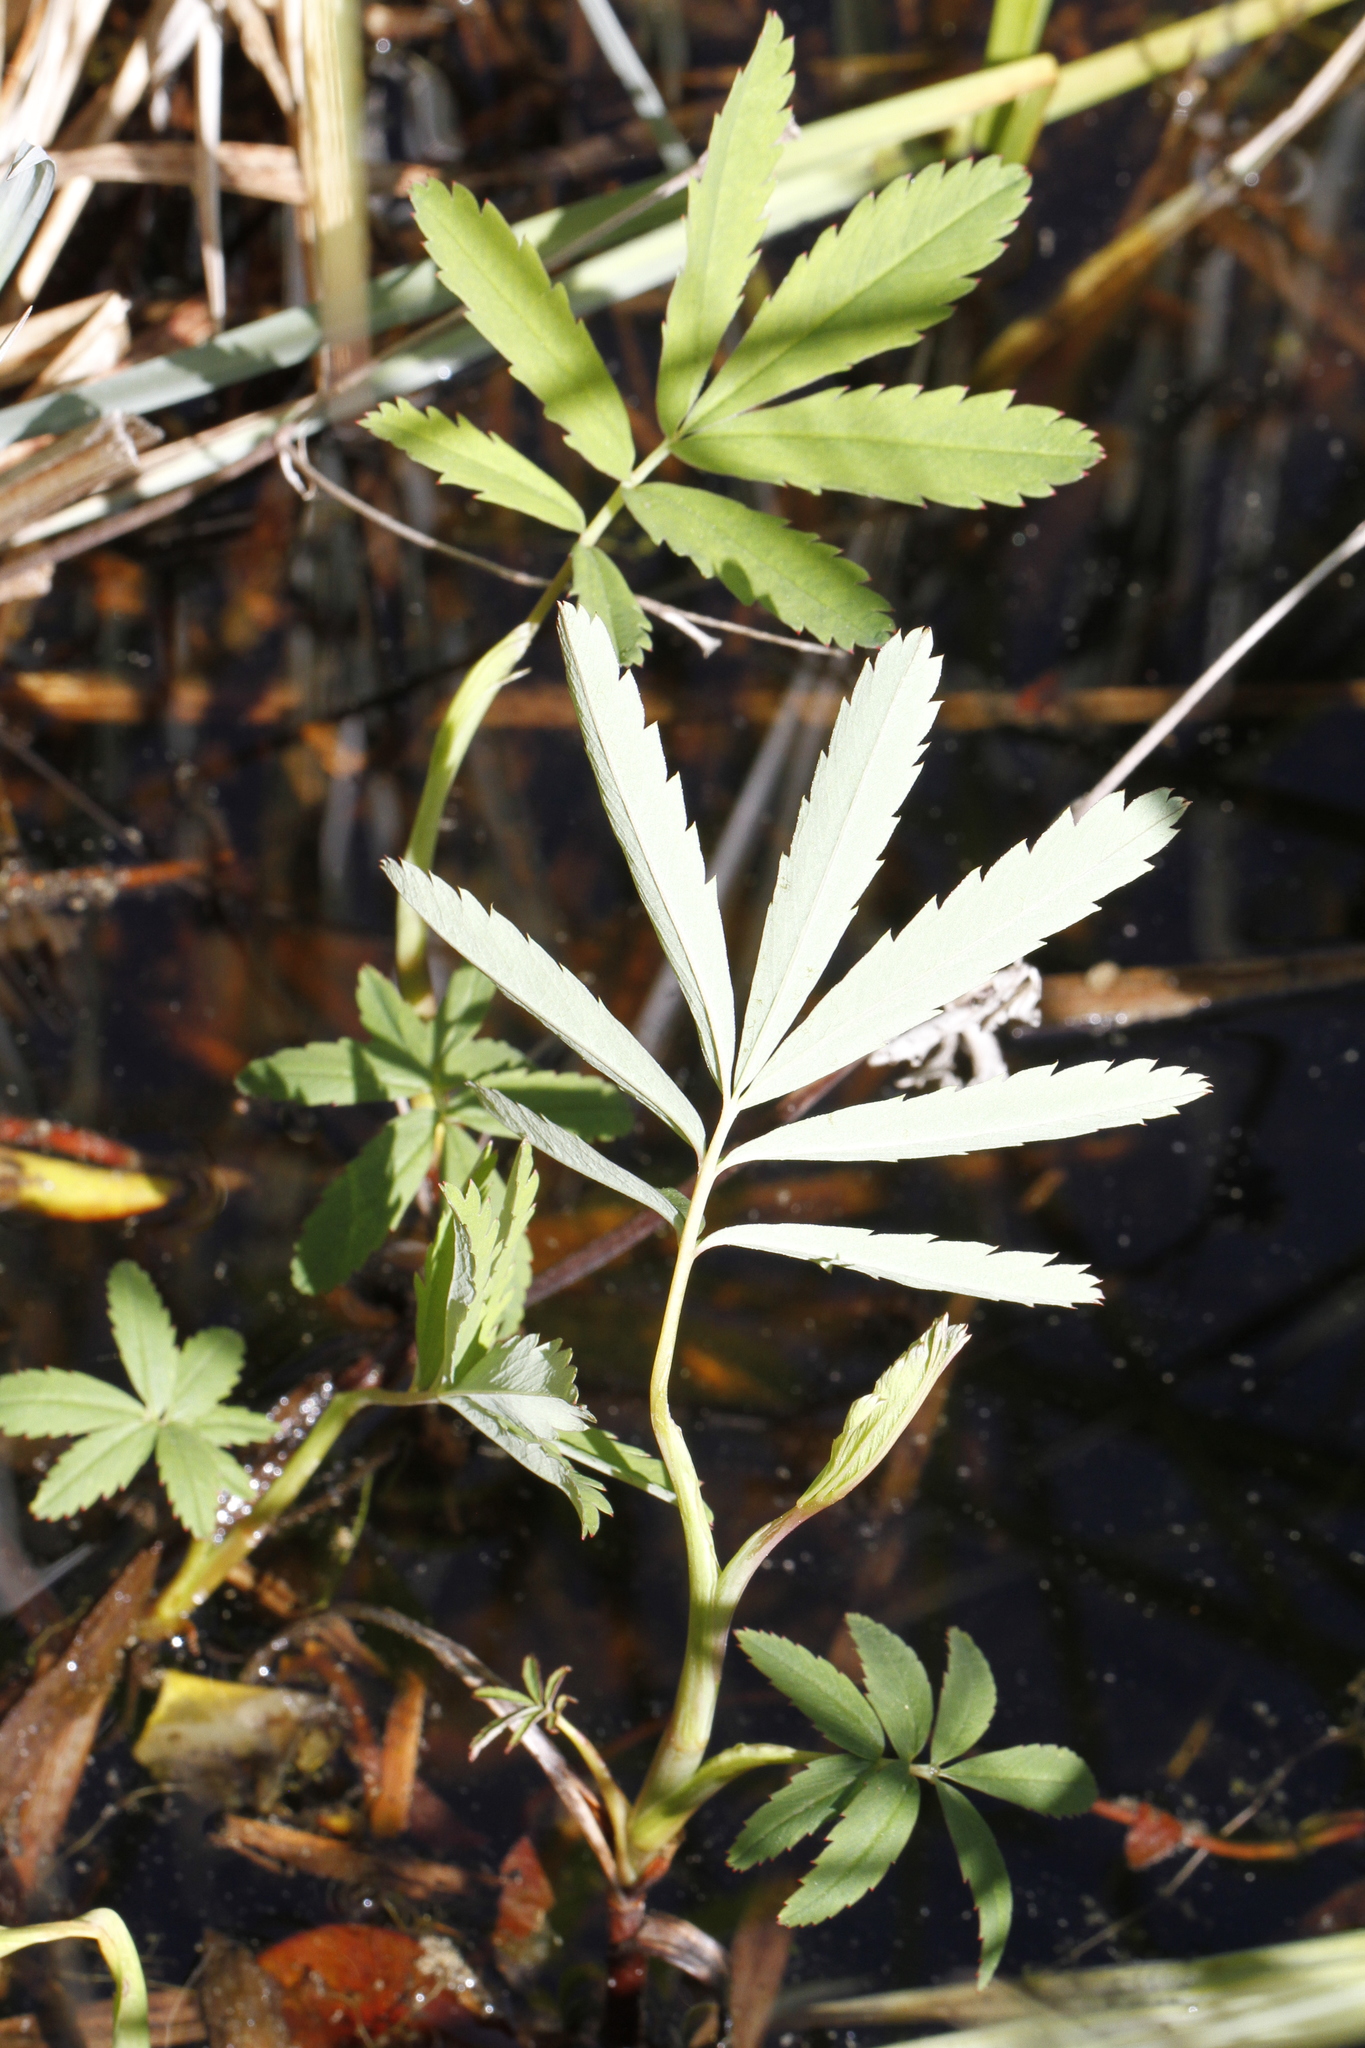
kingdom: Plantae
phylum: Tracheophyta
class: Magnoliopsida
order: Rosales
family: Rosaceae
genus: Comarum
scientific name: Comarum palustre
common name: Marsh cinquefoil
